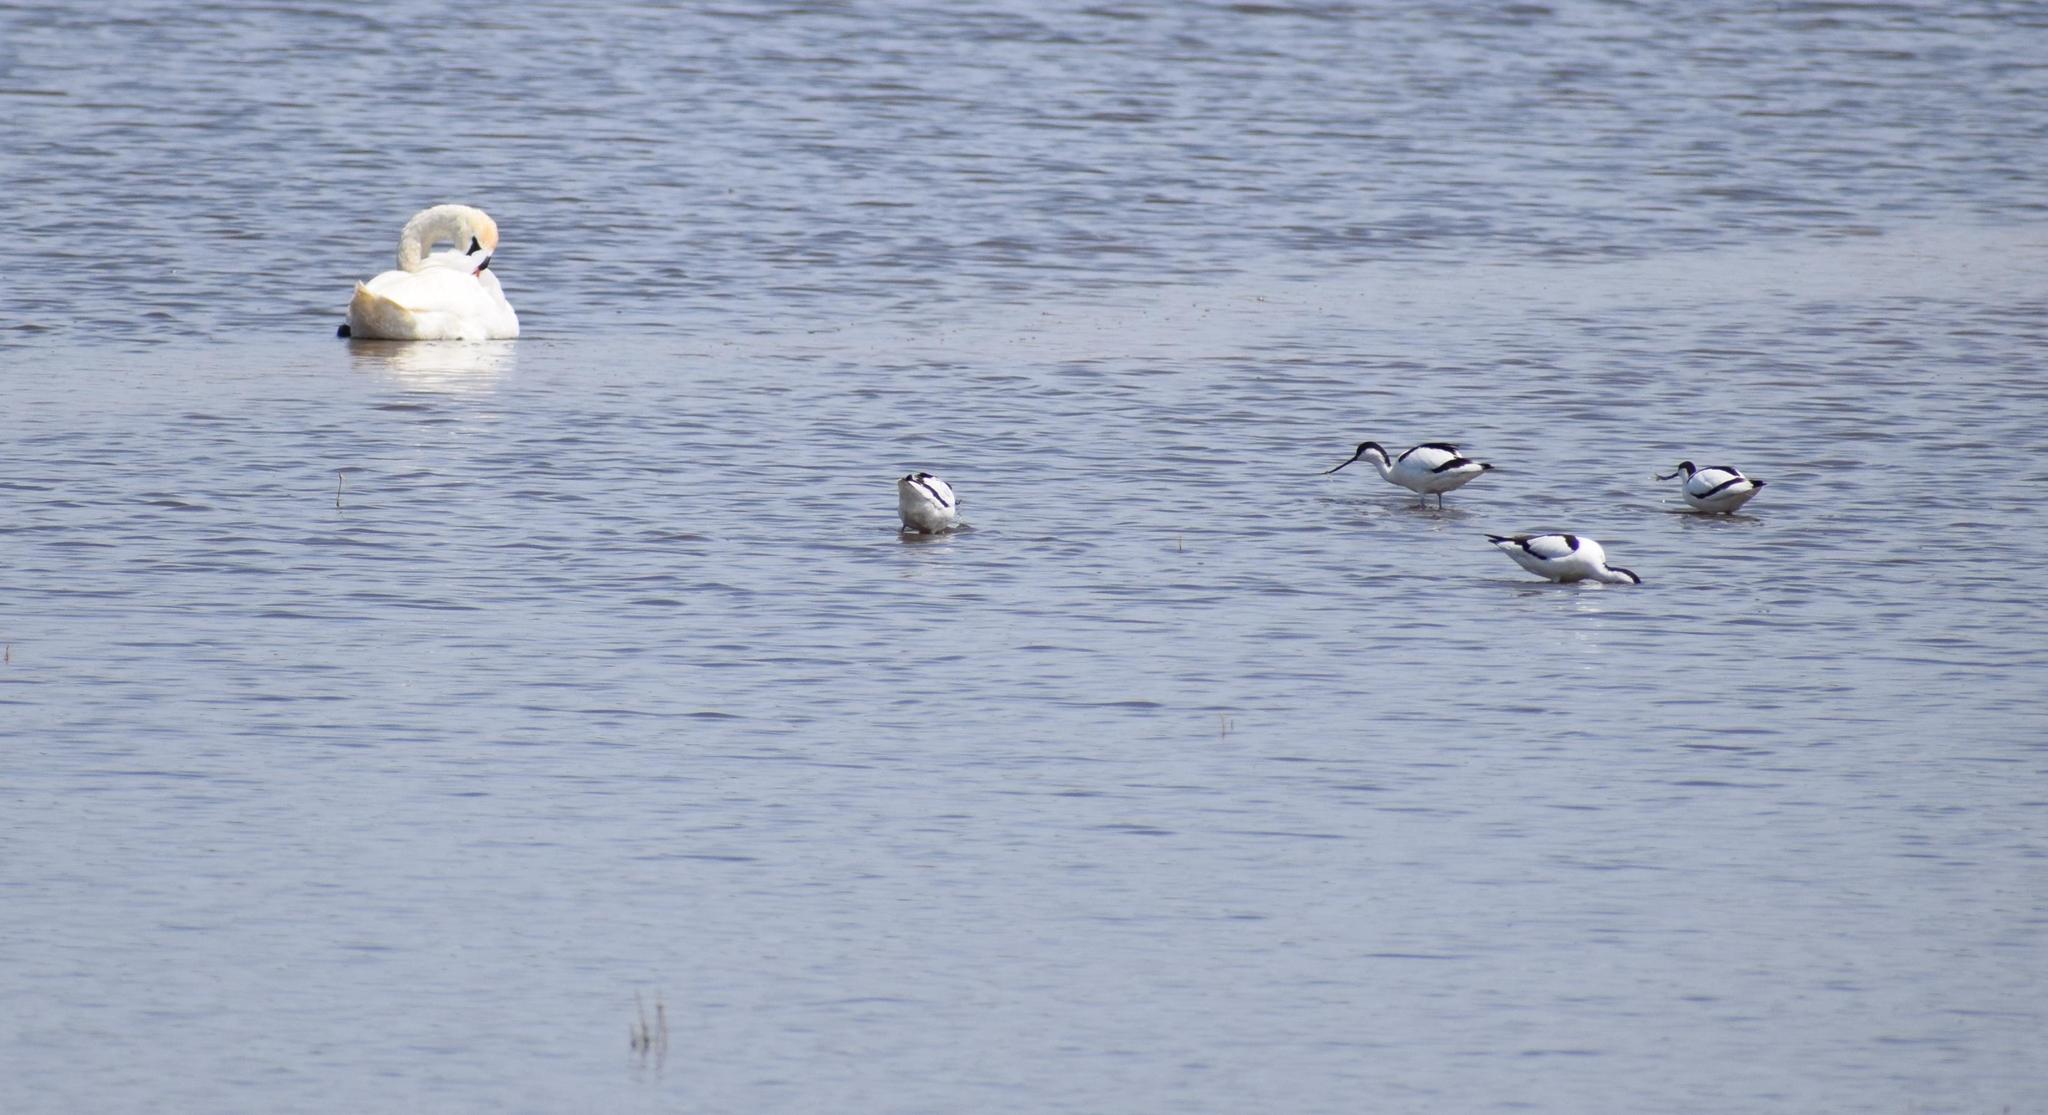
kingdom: Animalia
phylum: Chordata
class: Aves
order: Anseriformes
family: Anatidae
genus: Cygnus
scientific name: Cygnus olor
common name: Mute swan
